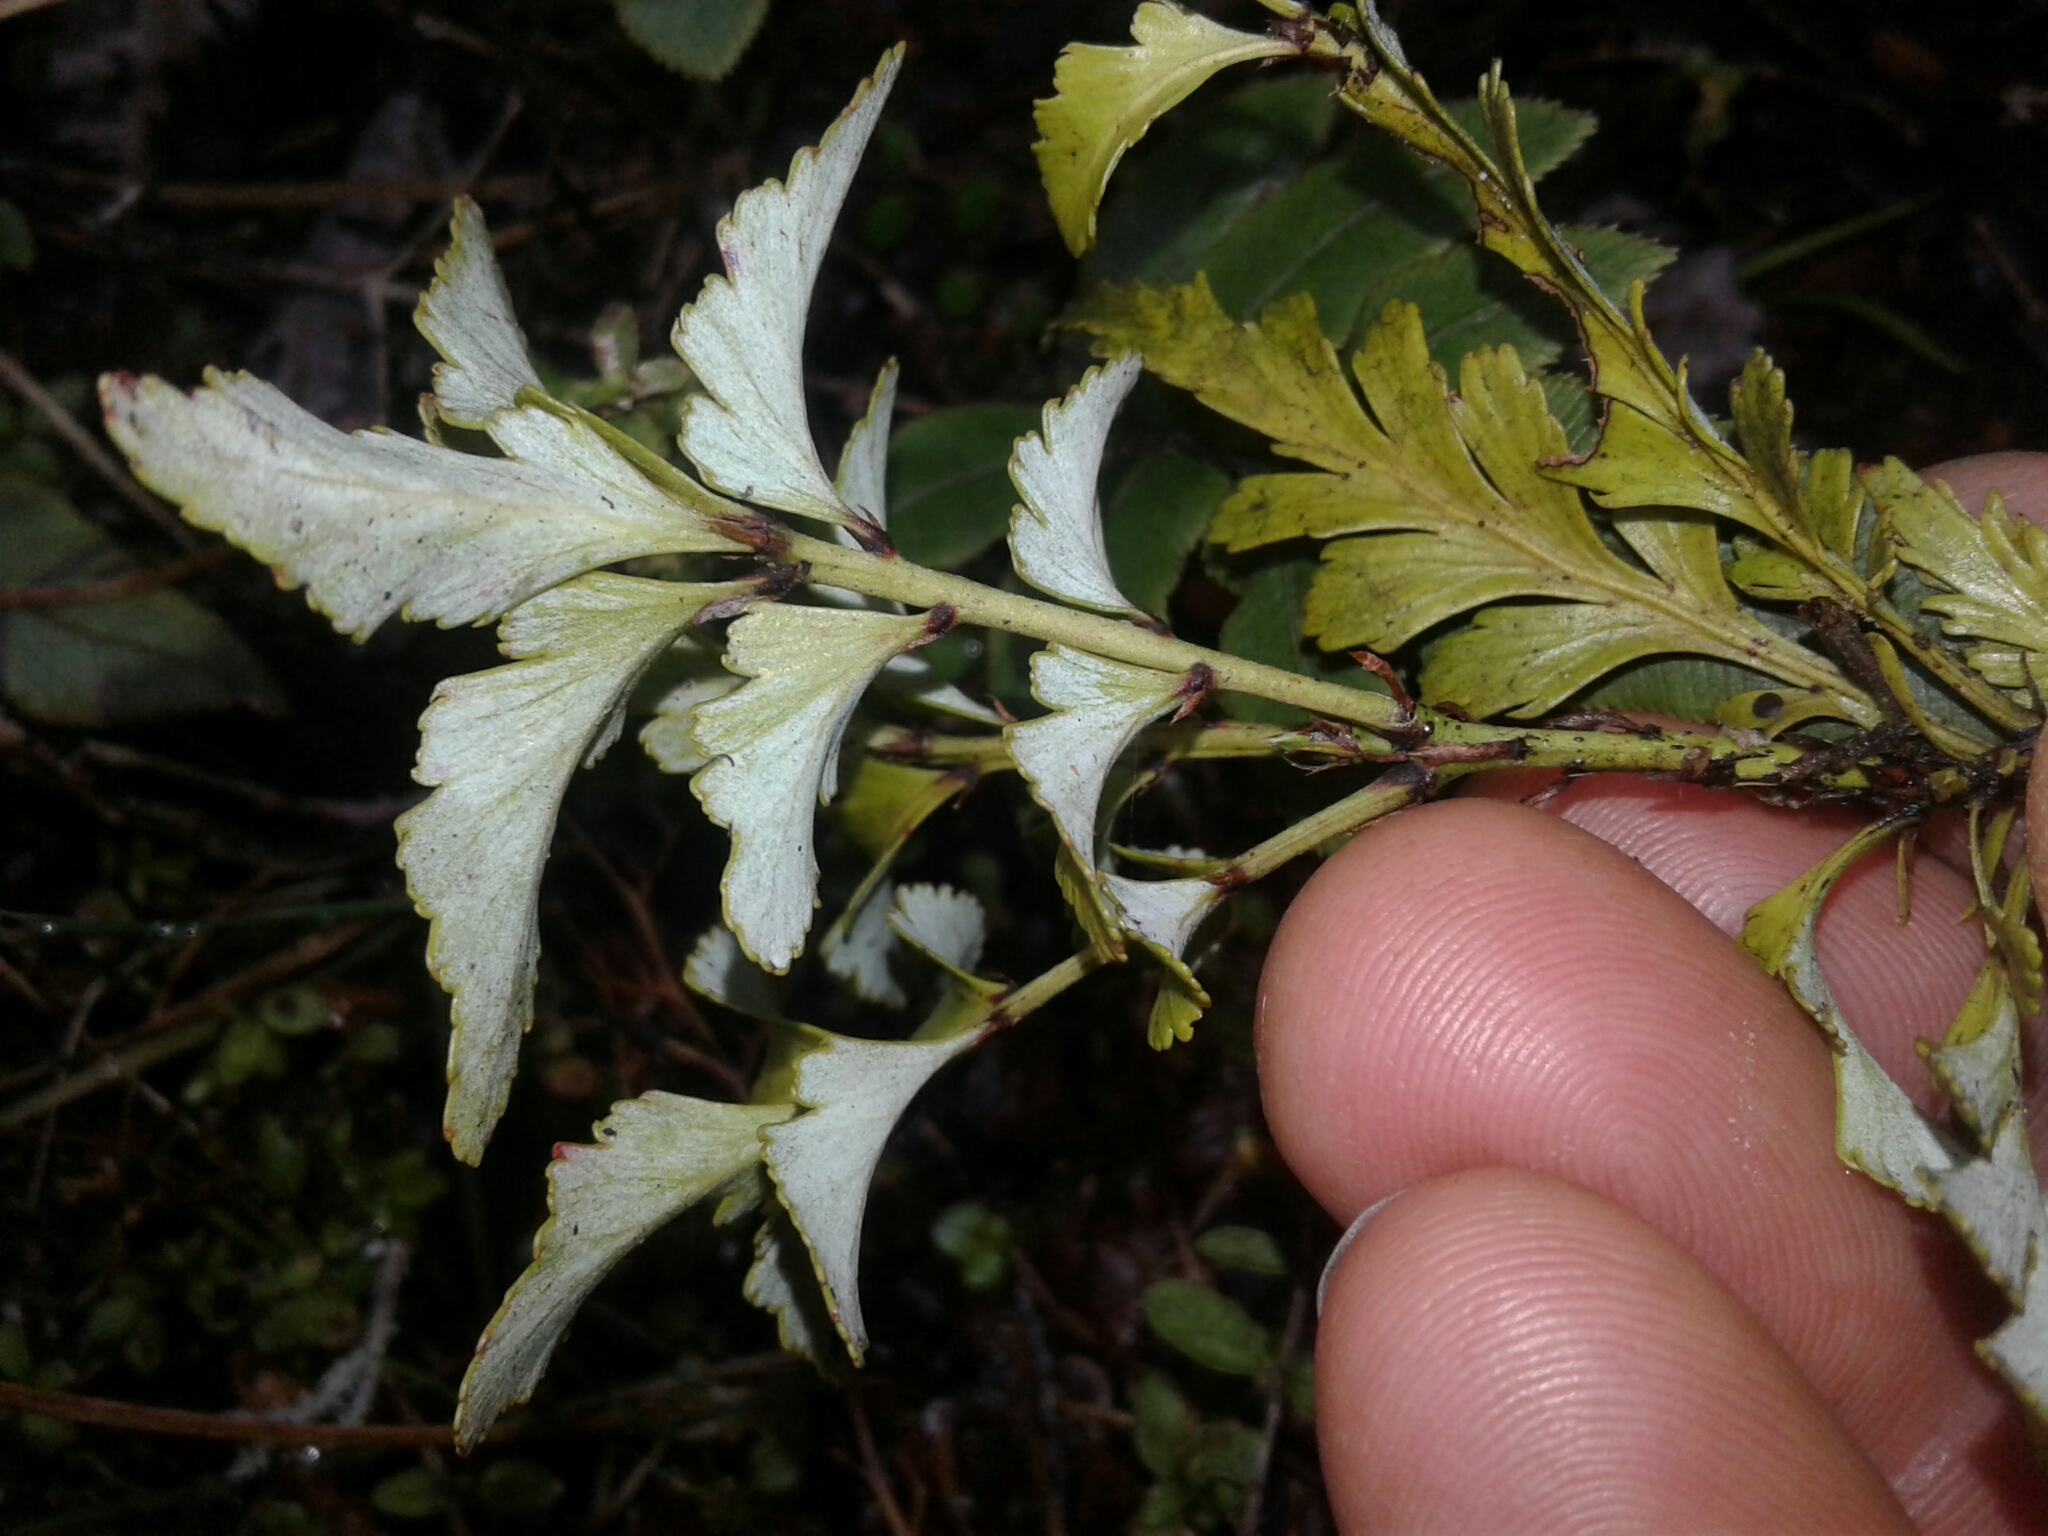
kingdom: Plantae
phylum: Tracheophyta
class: Pinopsida
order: Pinales
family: Phyllocladaceae
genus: Phyllocladus
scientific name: Phyllocladus trichomanoides
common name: Celery pine
